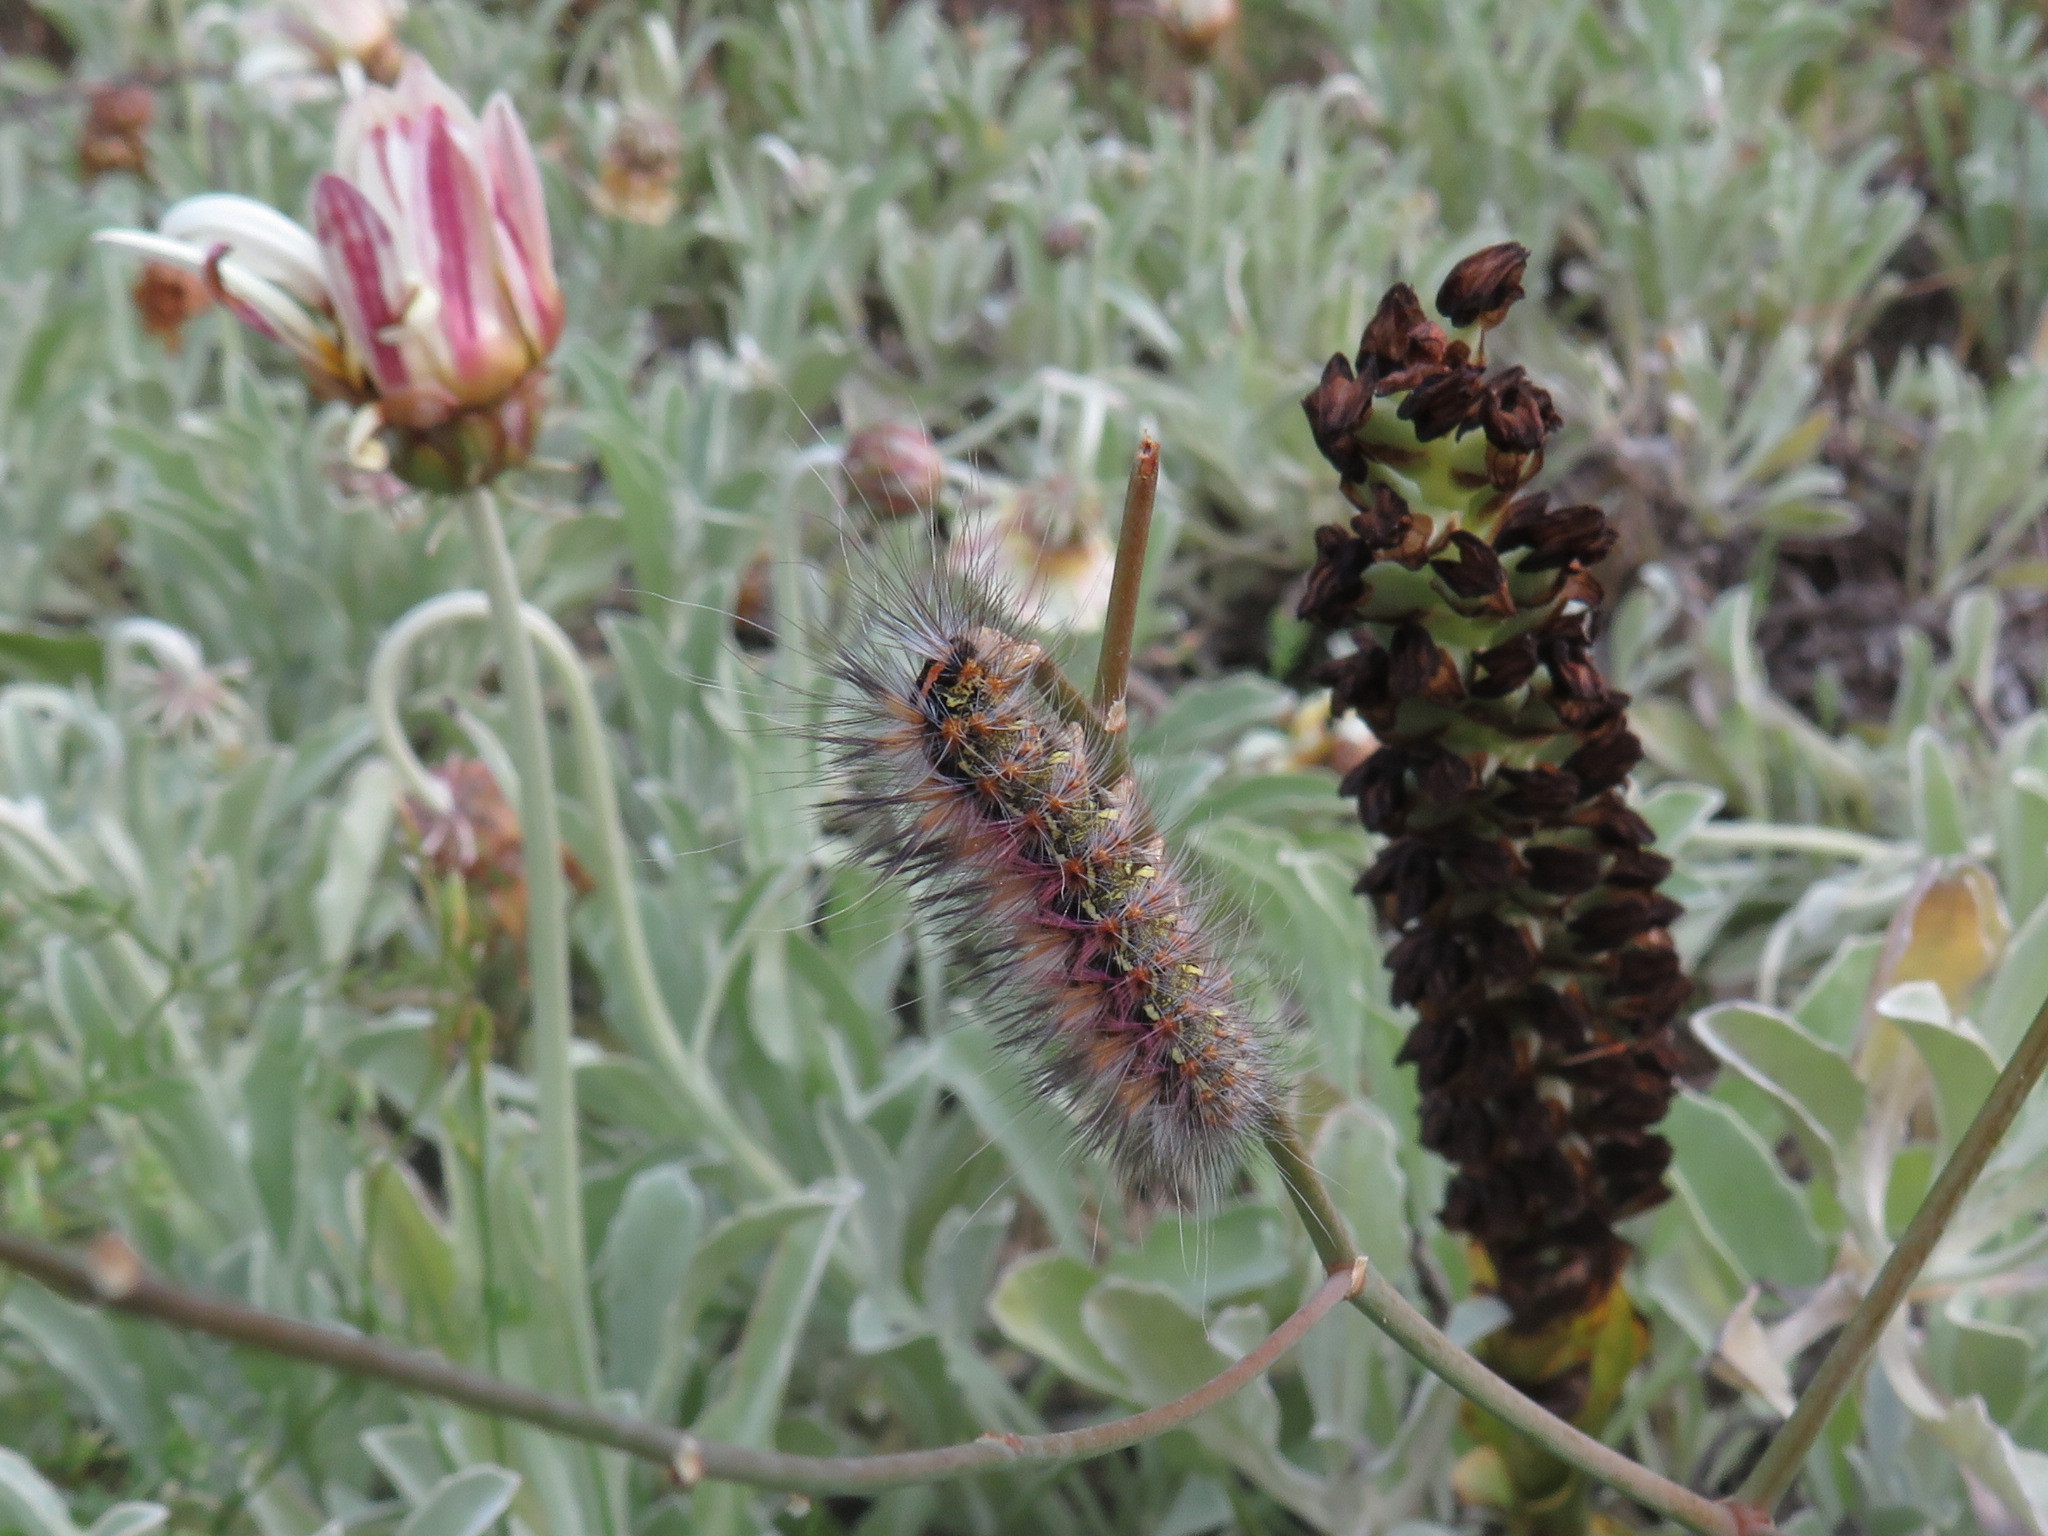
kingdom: Animalia
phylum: Arthropoda
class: Insecta
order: Lepidoptera
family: Erebidae
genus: Paralacydes
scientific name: Paralacydes vocula
